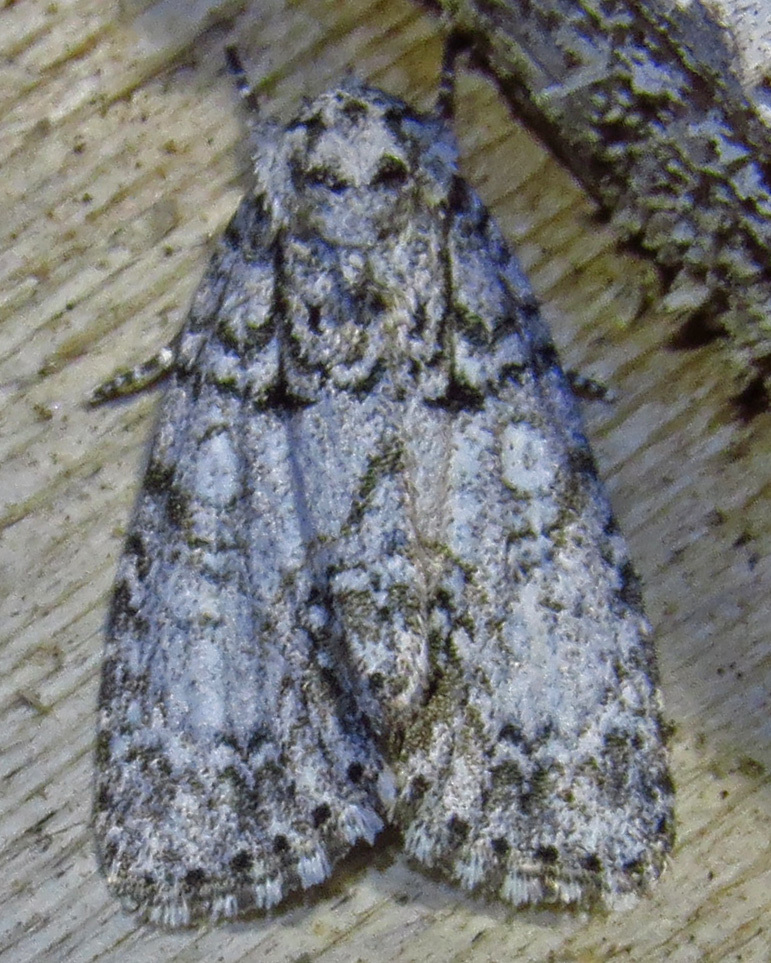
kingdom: Animalia
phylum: Arthropoda
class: Insecta
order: Lepidoptera
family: Noctuidae
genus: Acronicta
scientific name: Acronicta retardata
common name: Maple dagger
